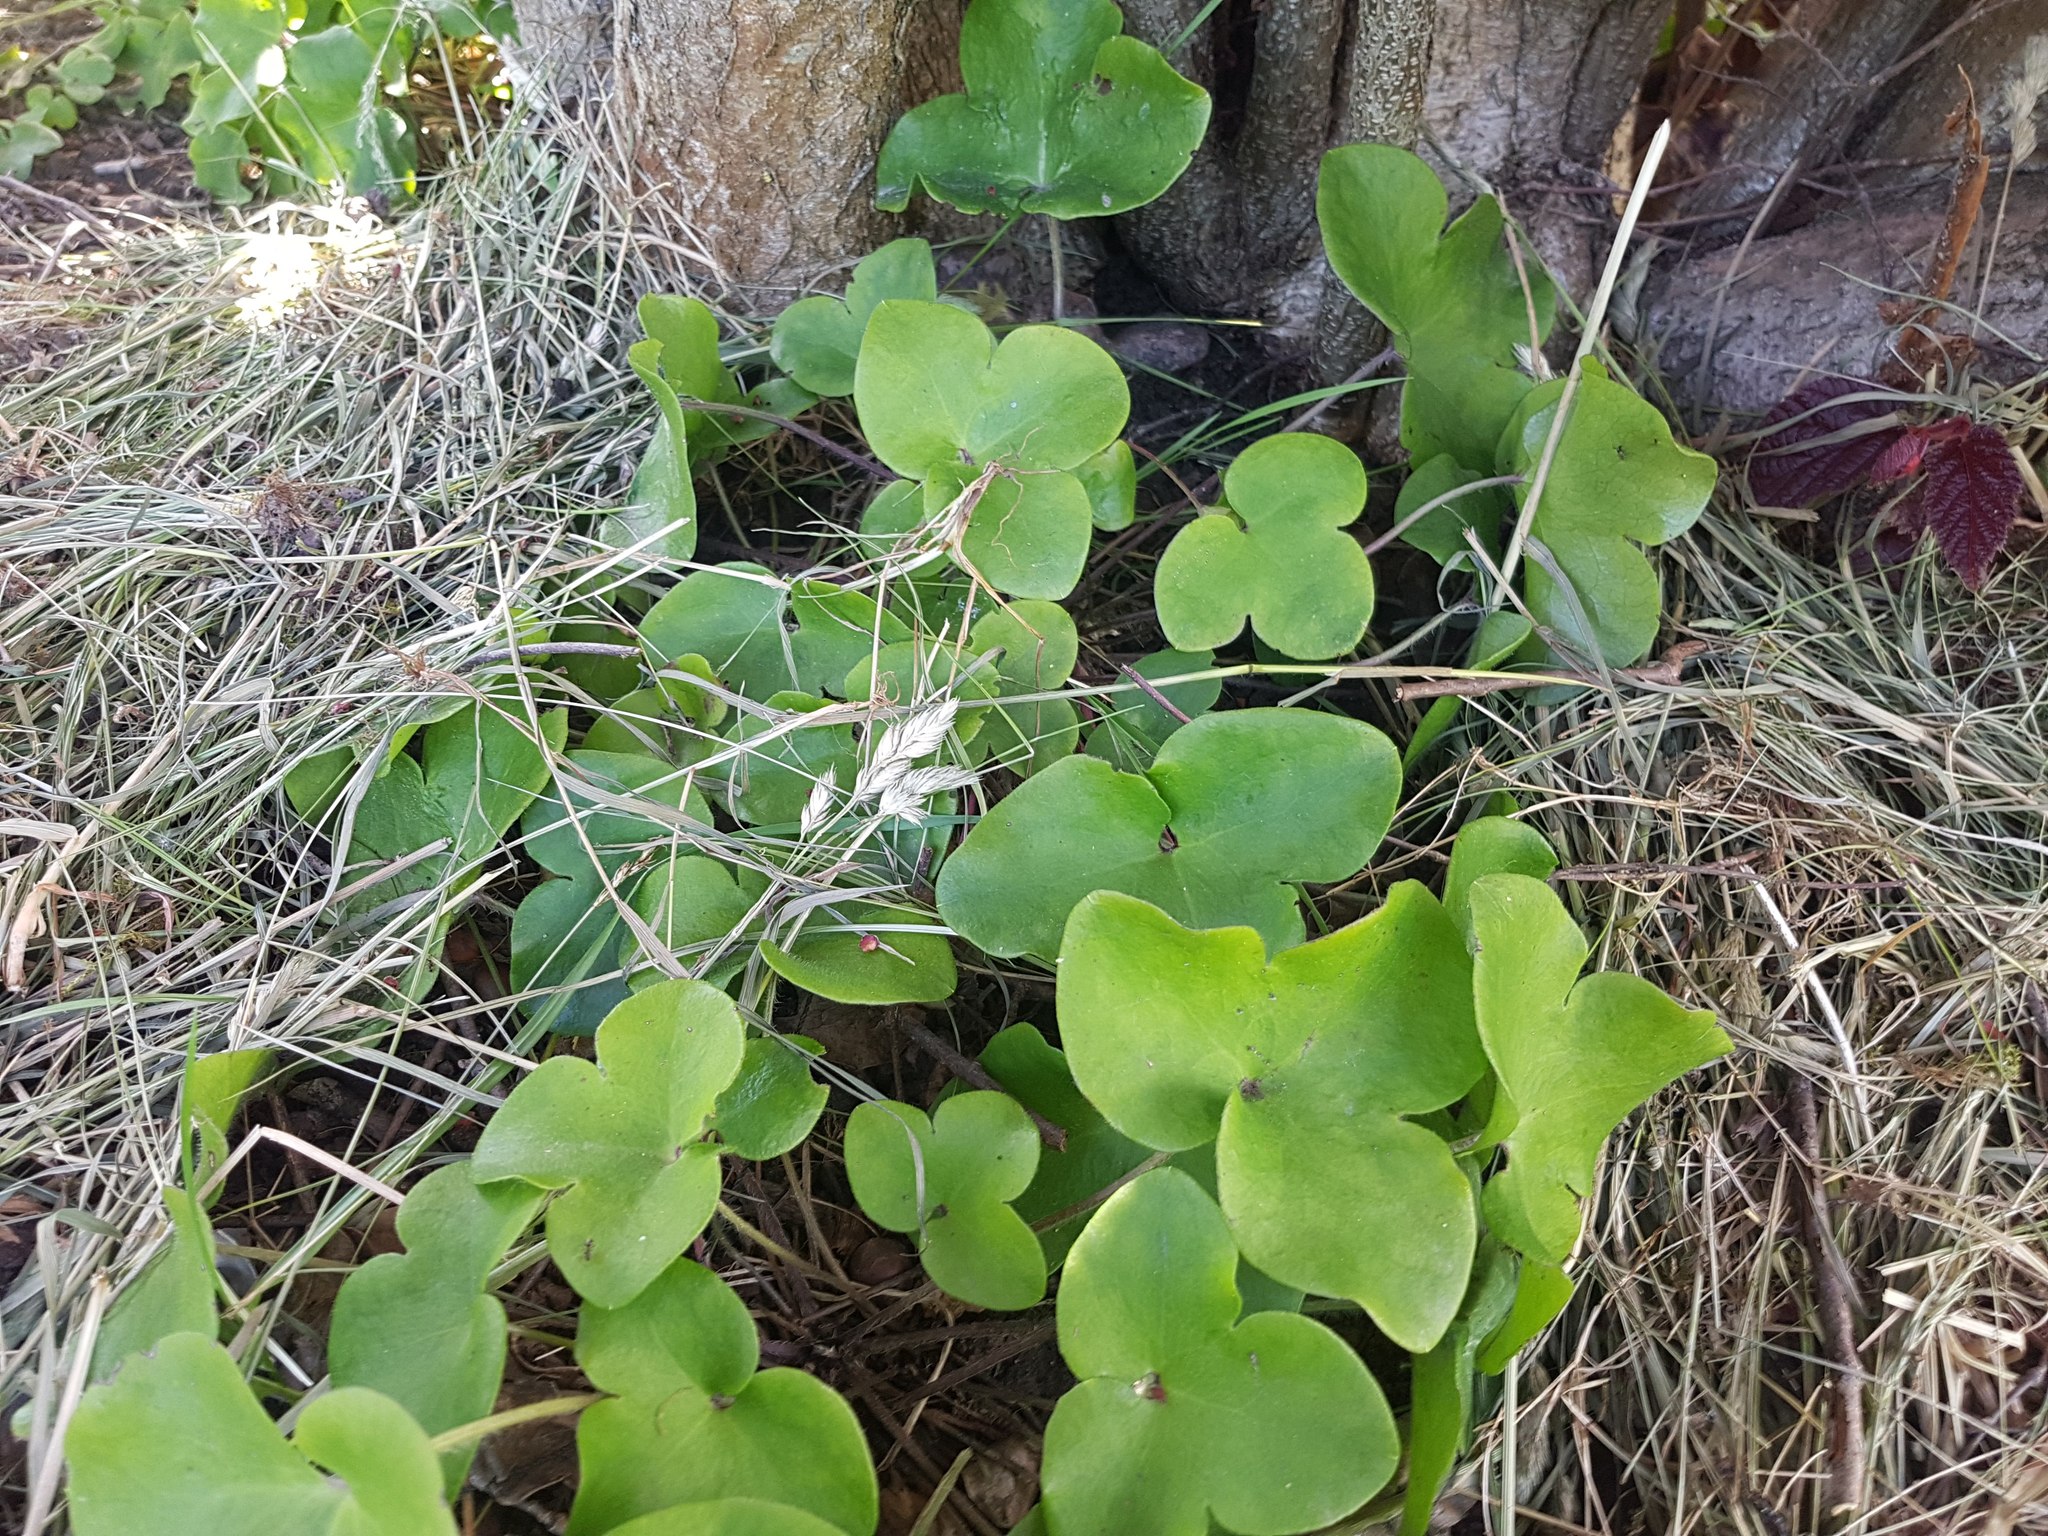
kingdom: Plantae
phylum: Tracheophyta
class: Magnoliopsida
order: Ranunculales
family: Ranunculaceae
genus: Hepatica
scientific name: Hepatica nobilis
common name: Liverleaf
